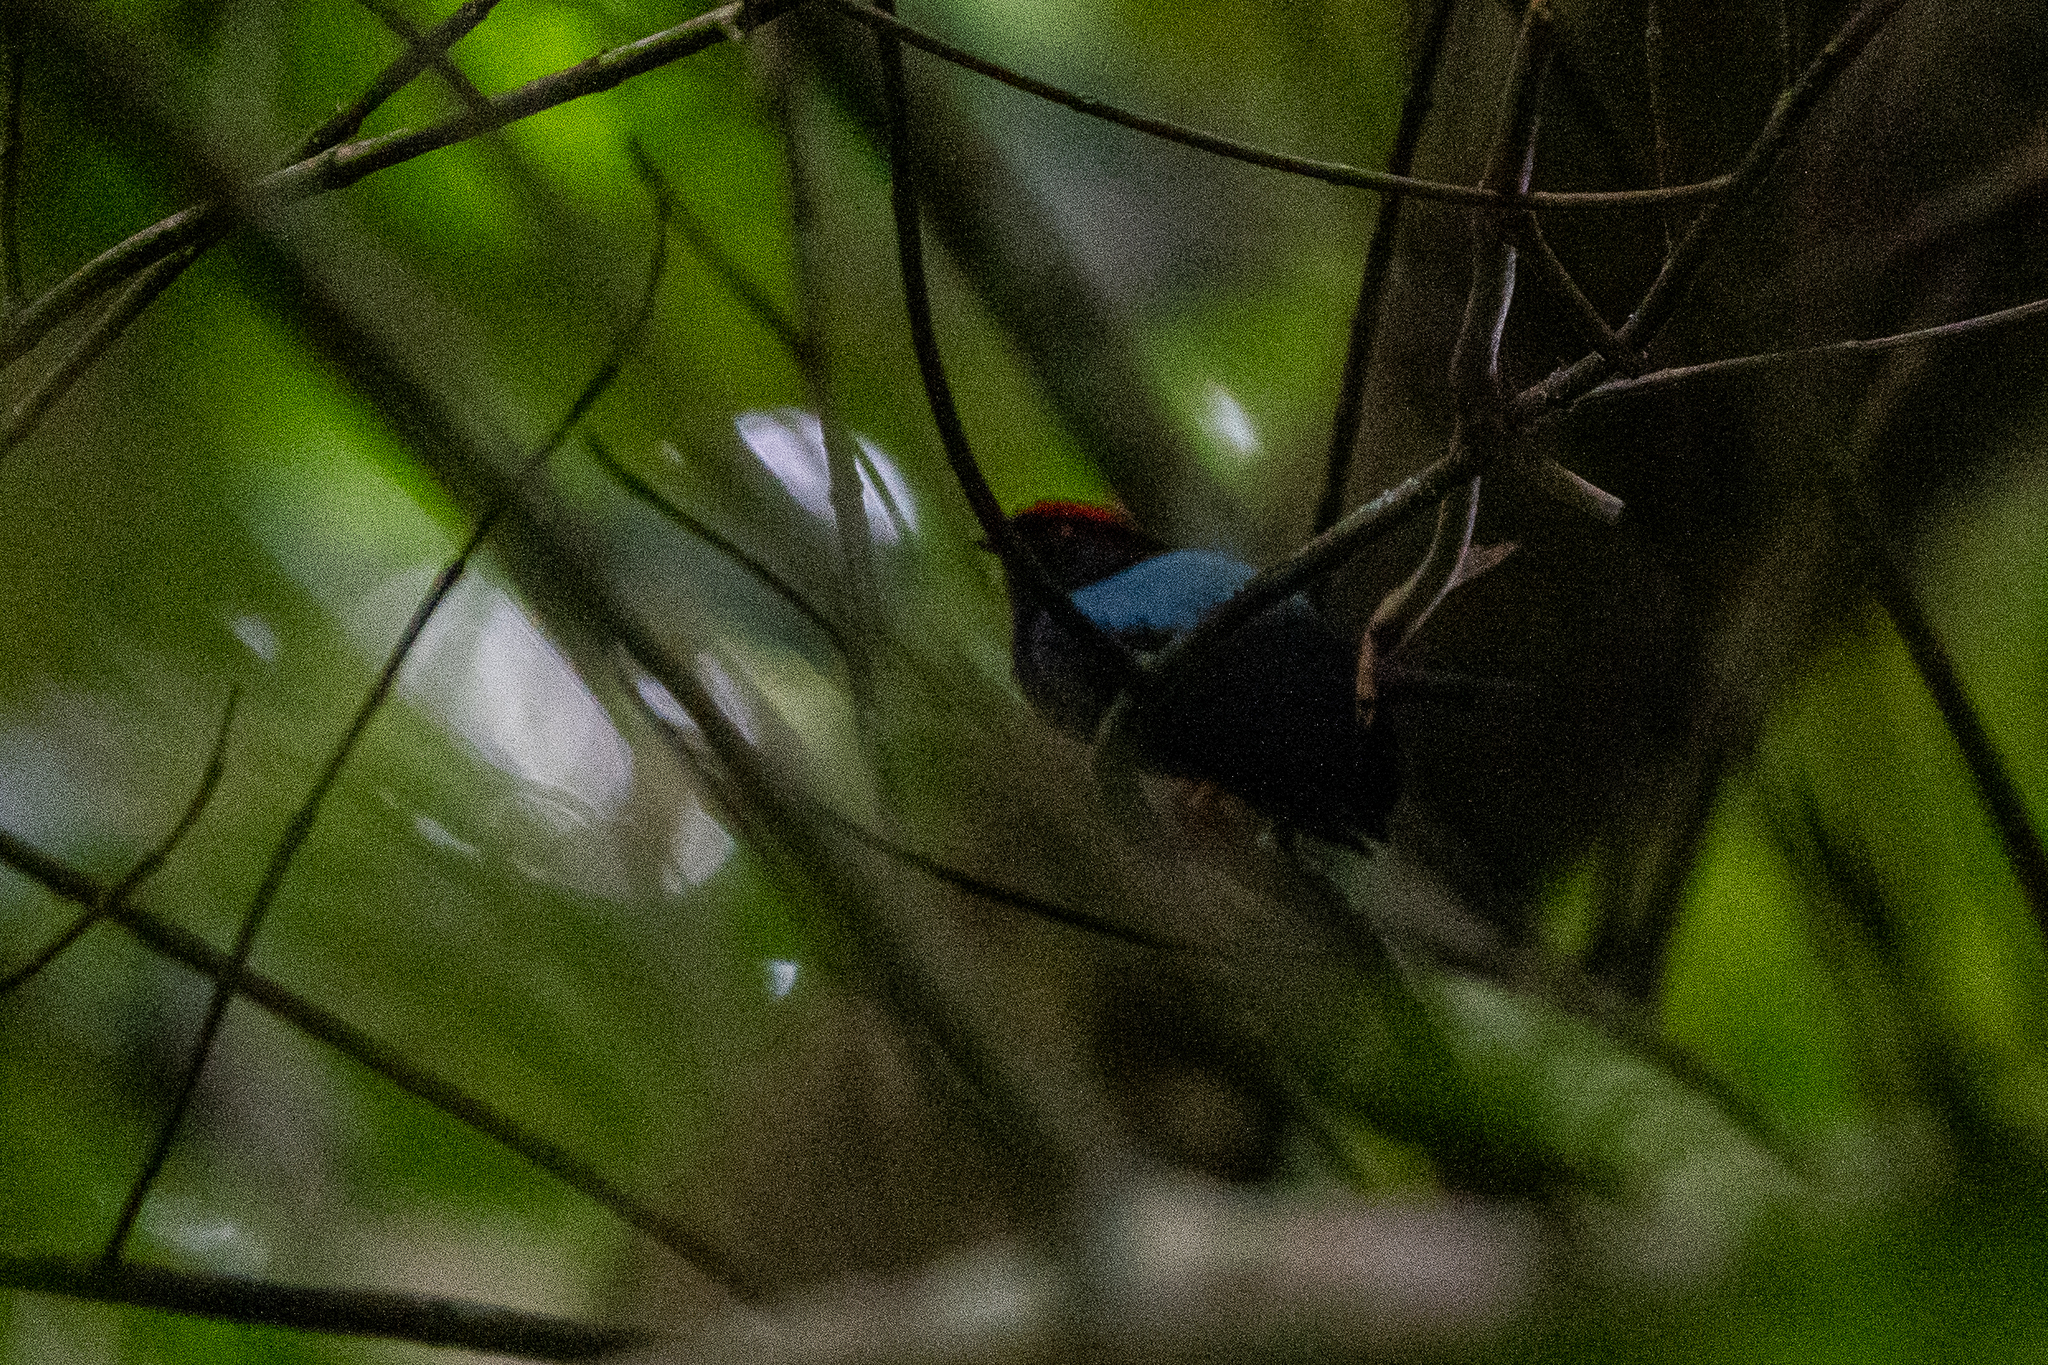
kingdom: Animalia
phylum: Chordata
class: Aves
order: Passeriformes
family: Pipridae
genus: Chiroxiphia
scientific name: Chiroxiphia lanceolata
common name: Lance-tailed manakin
